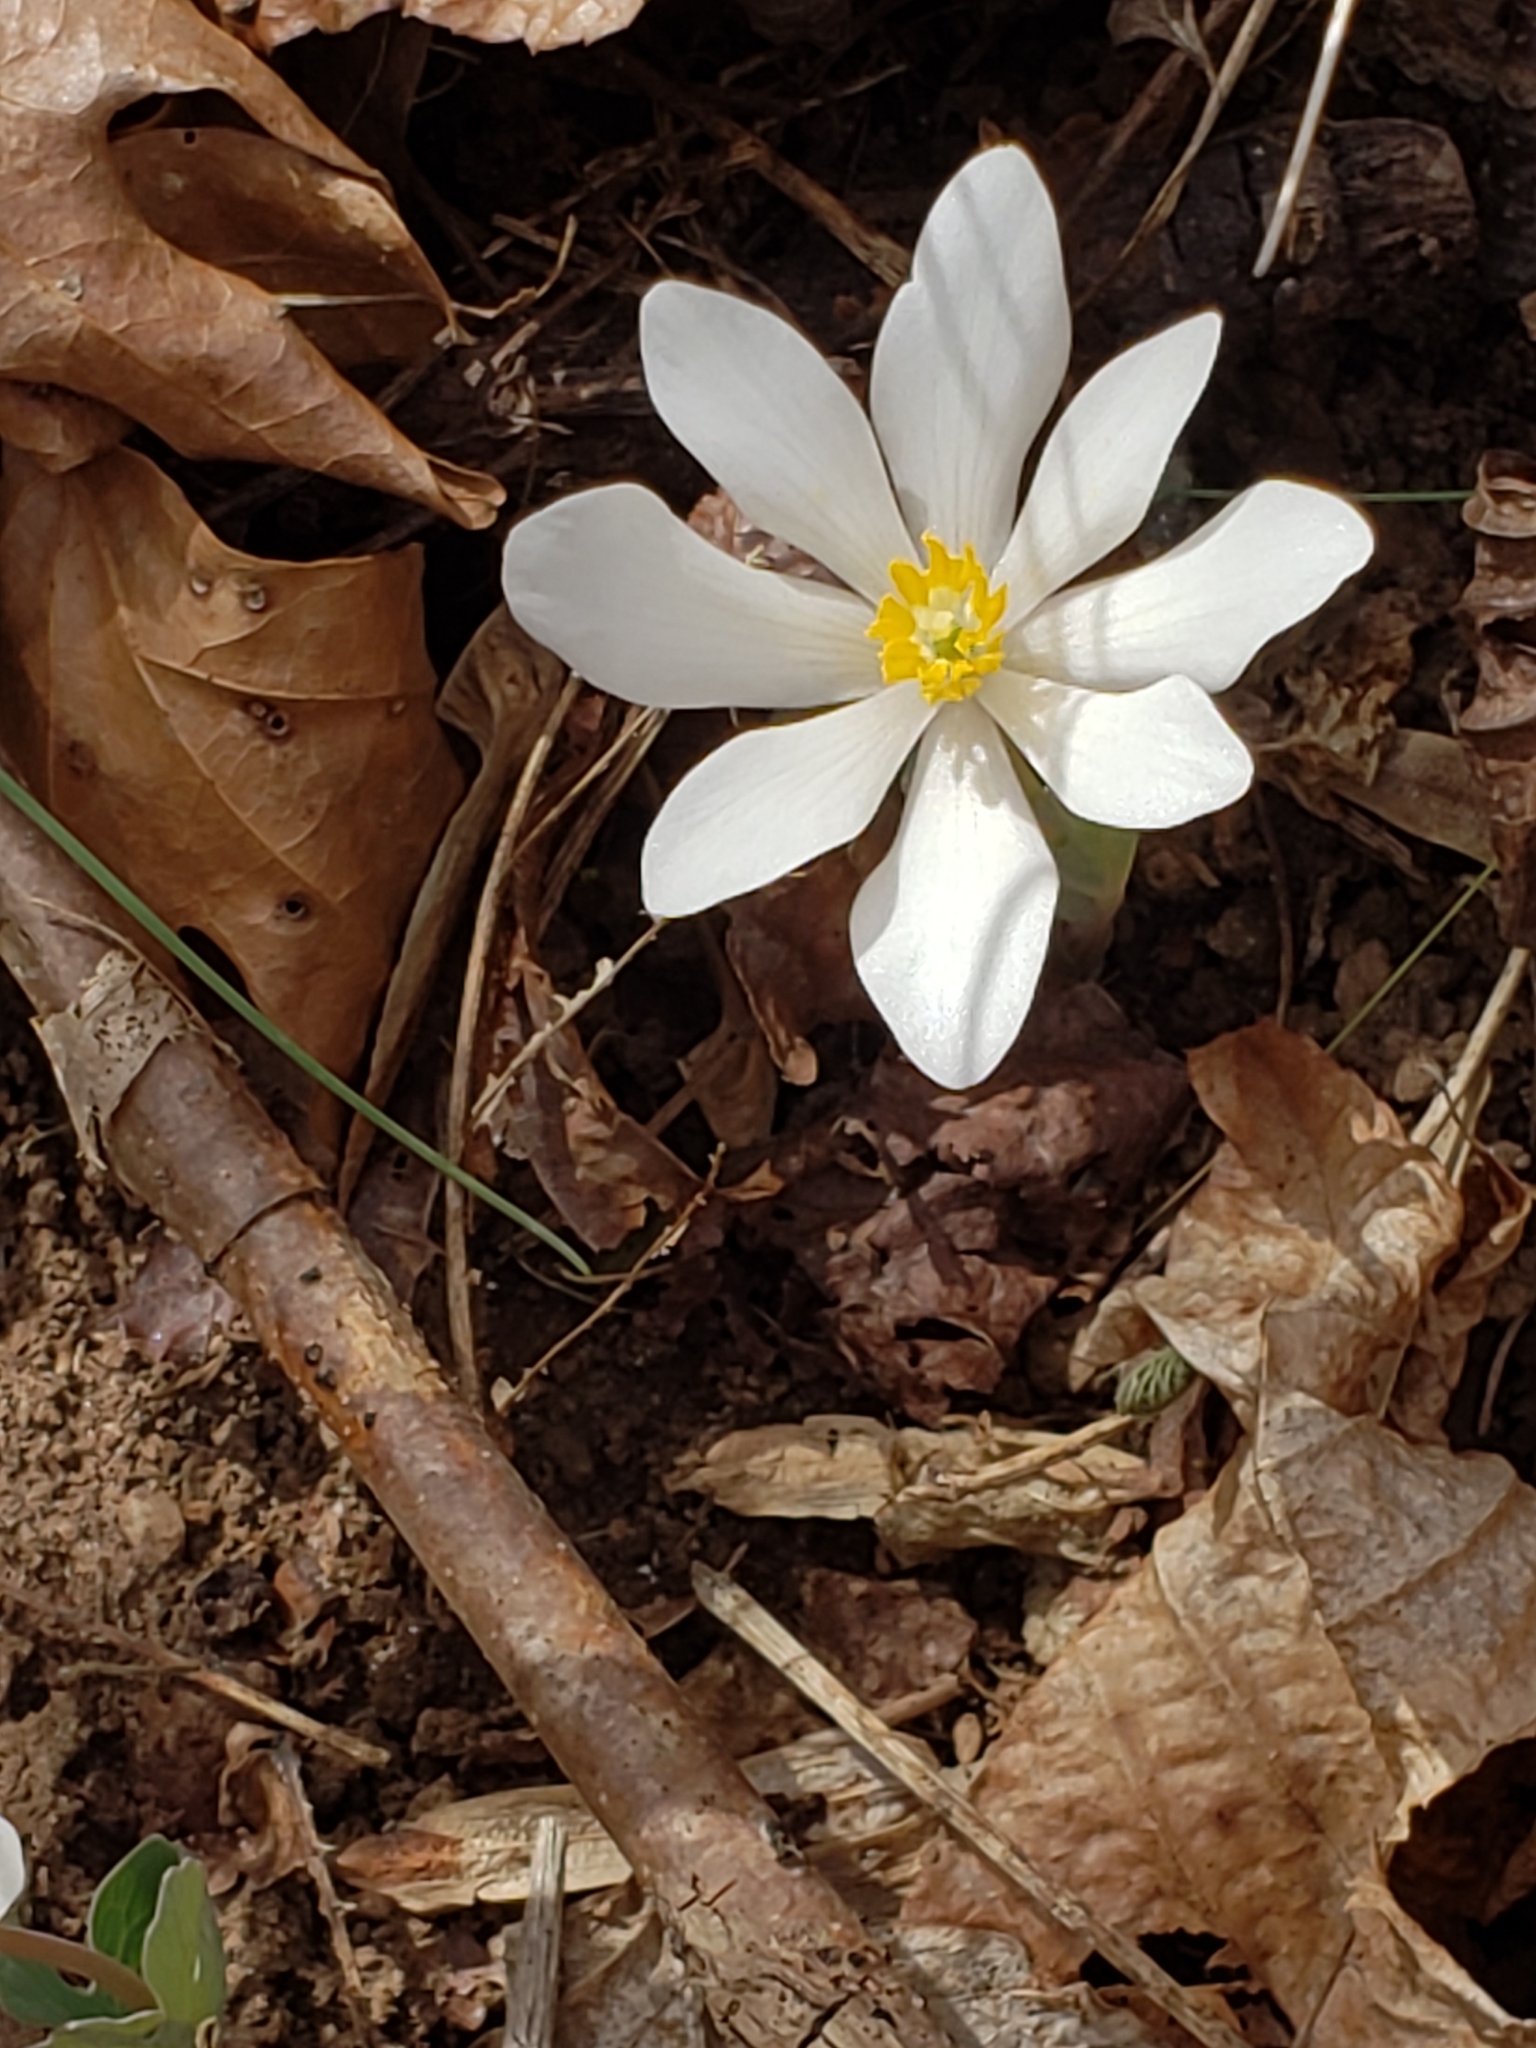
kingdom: Plantae
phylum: Tracheophyta
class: Magnoliopsida
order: Ranunculales
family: Papaveraceae
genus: Sanguinaria
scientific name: Sanguinaria canadensis
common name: Bloodroot
